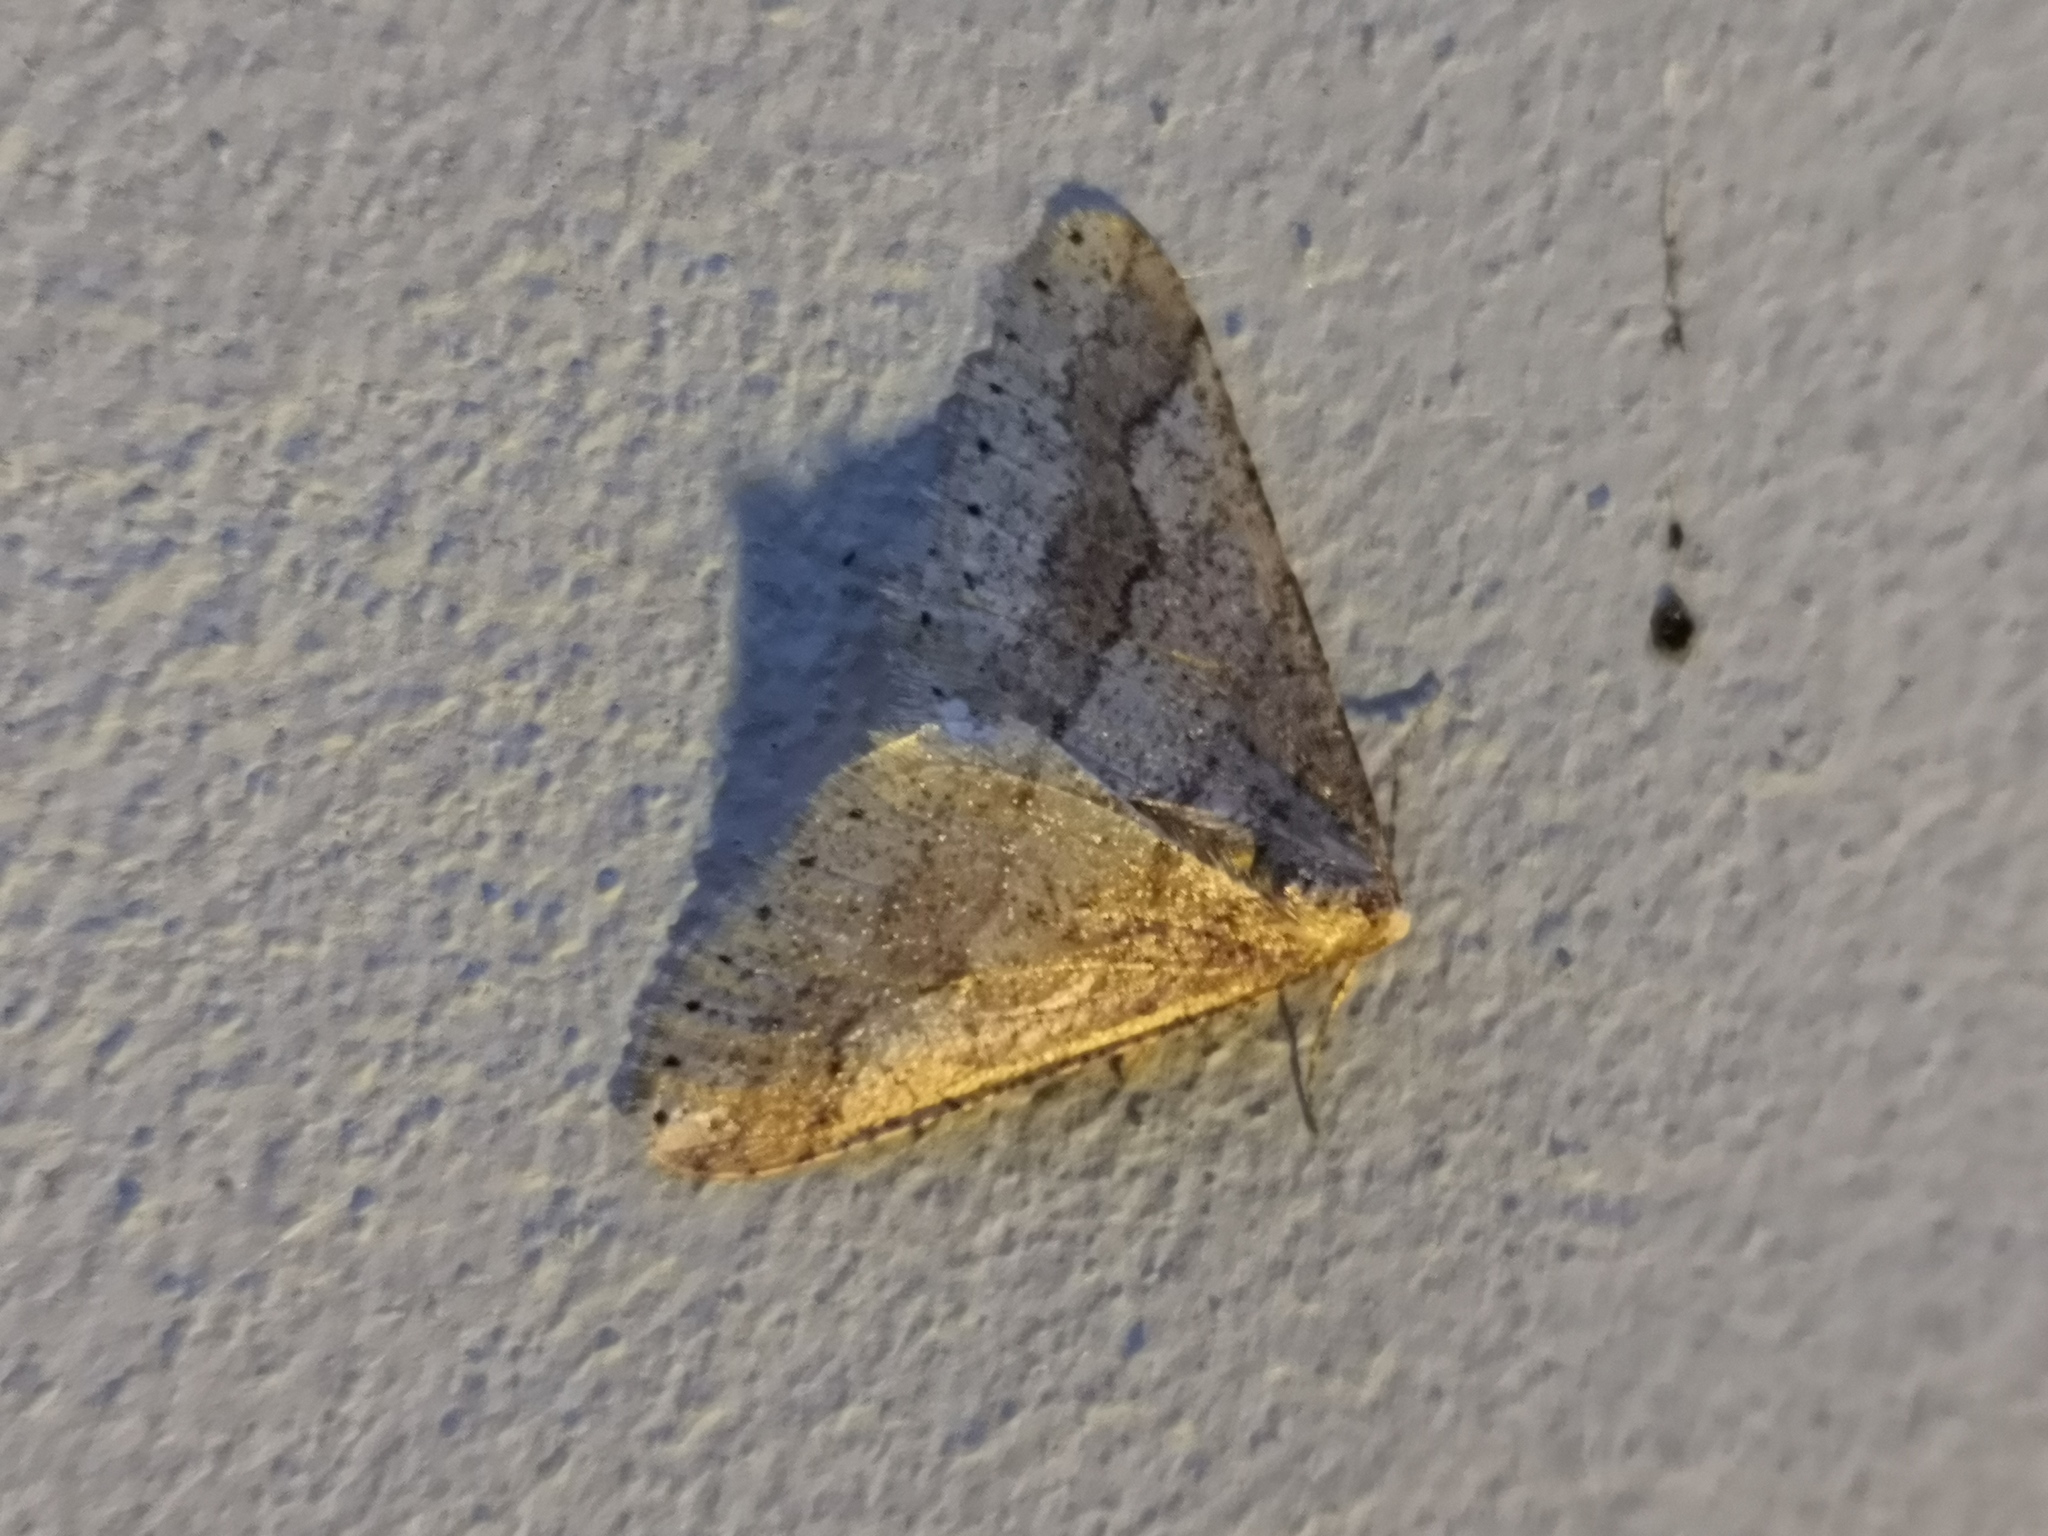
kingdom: Animalia
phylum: Arthropoda
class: Insecta
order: Lepidoptera
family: Geometridae
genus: Agriopis
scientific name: Agriopis marginaria
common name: Dotted border
